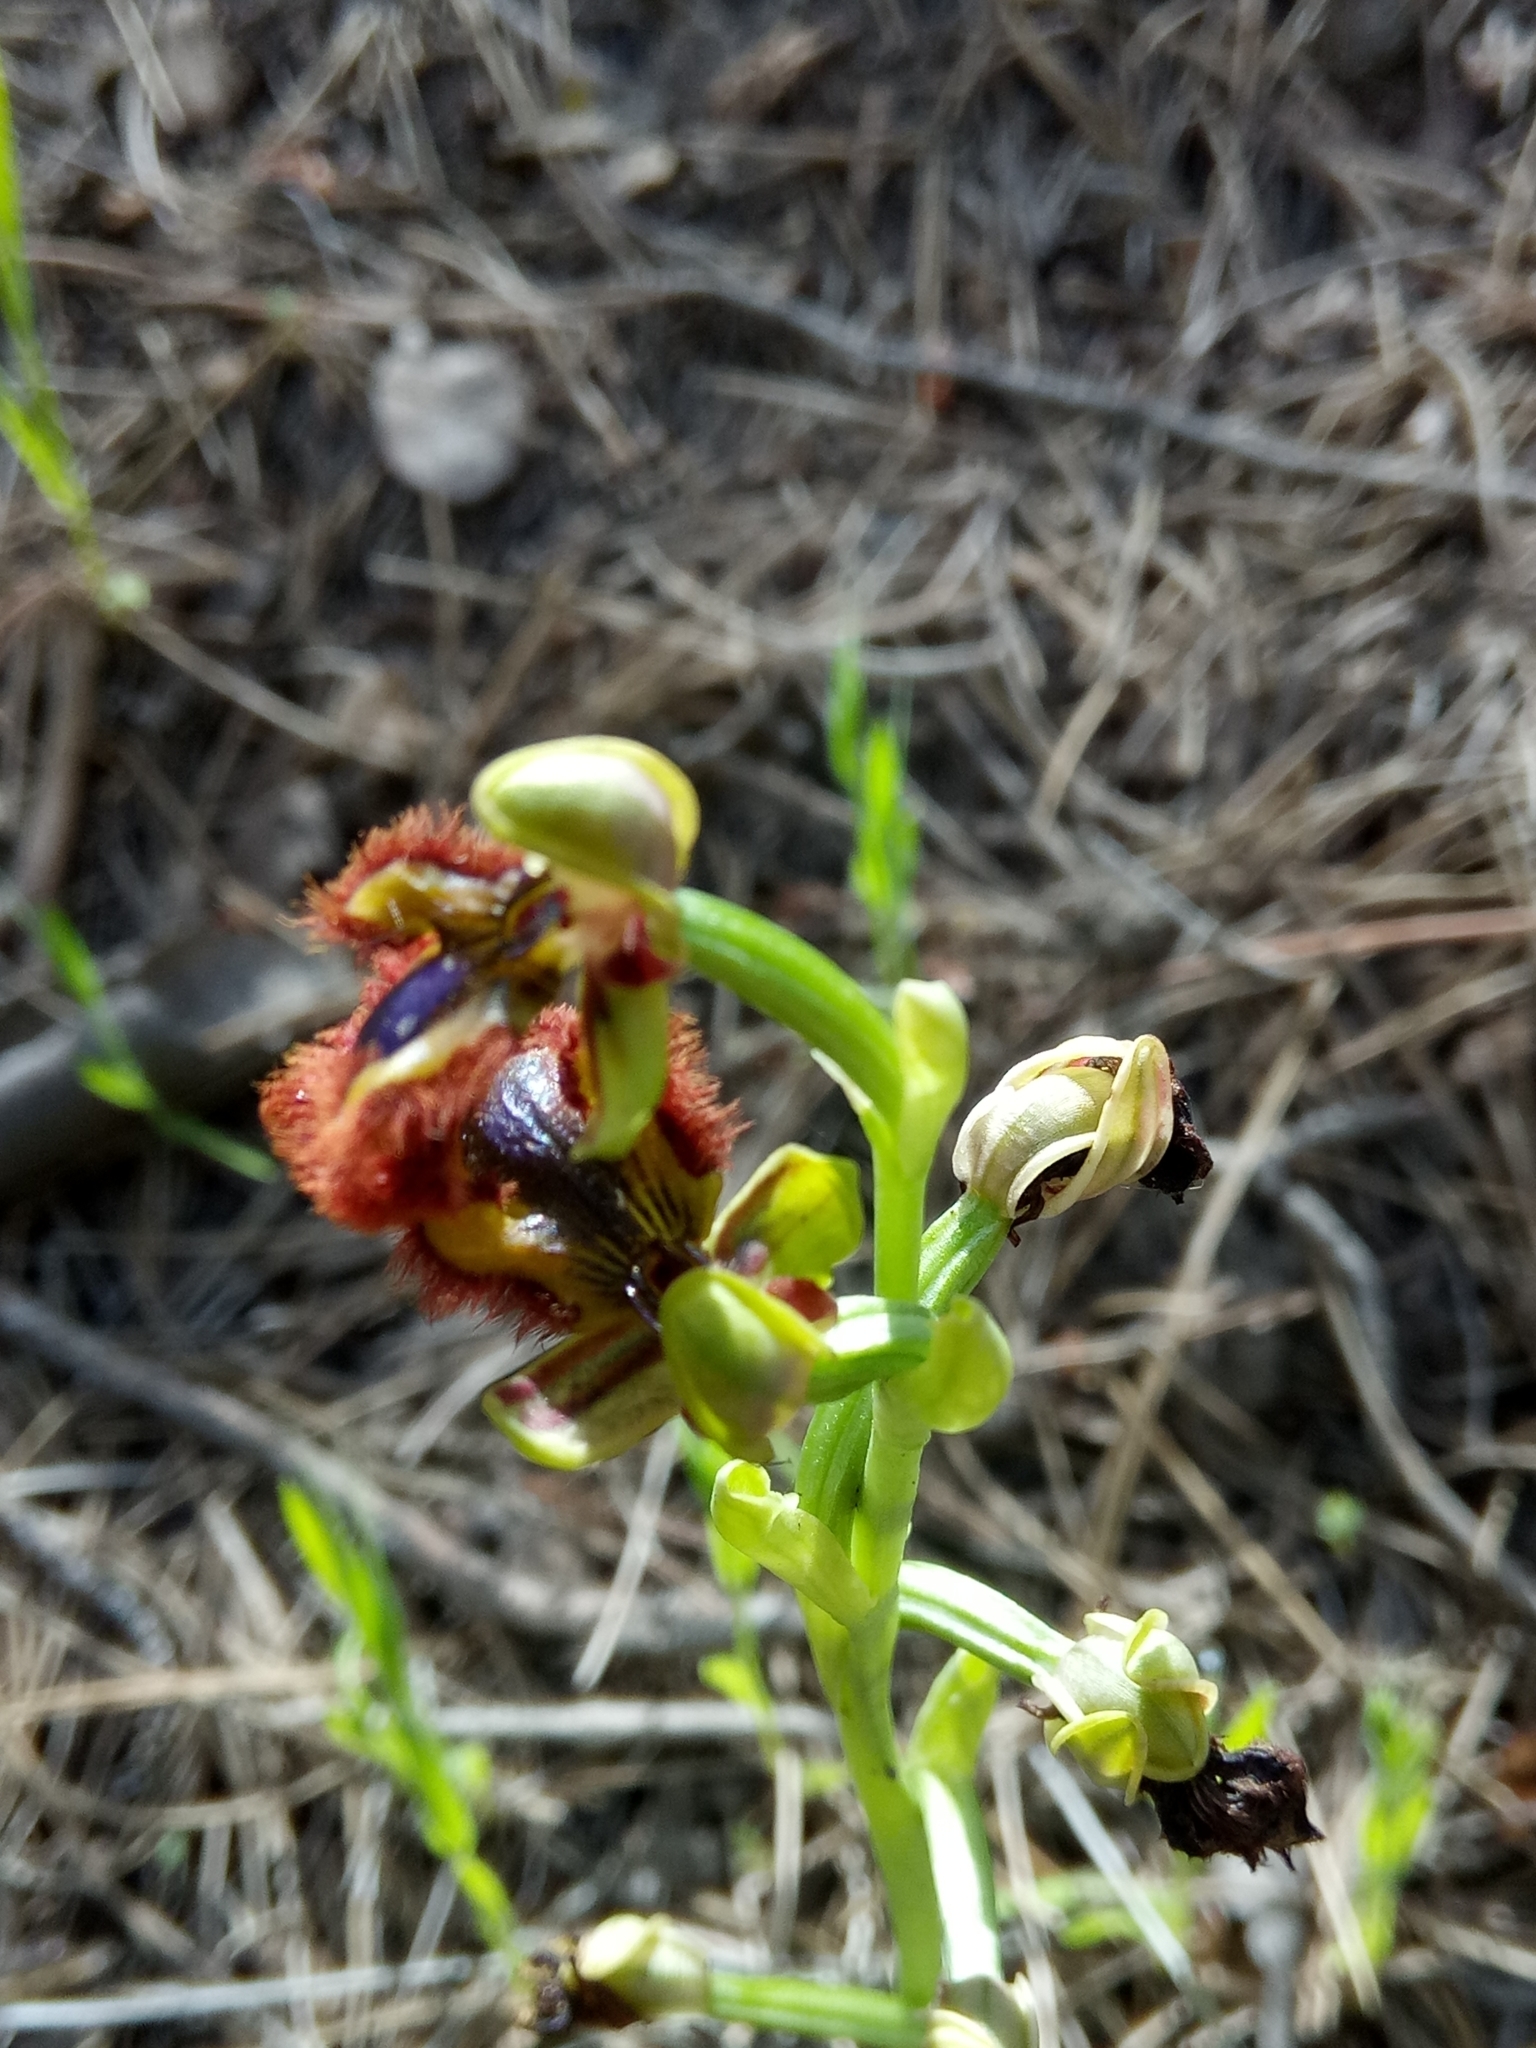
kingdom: Plantae
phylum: Tracheophyta
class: Liliopsida
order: Asparagales
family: Orchidaceae
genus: Ophrys
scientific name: Ophrys speculum
